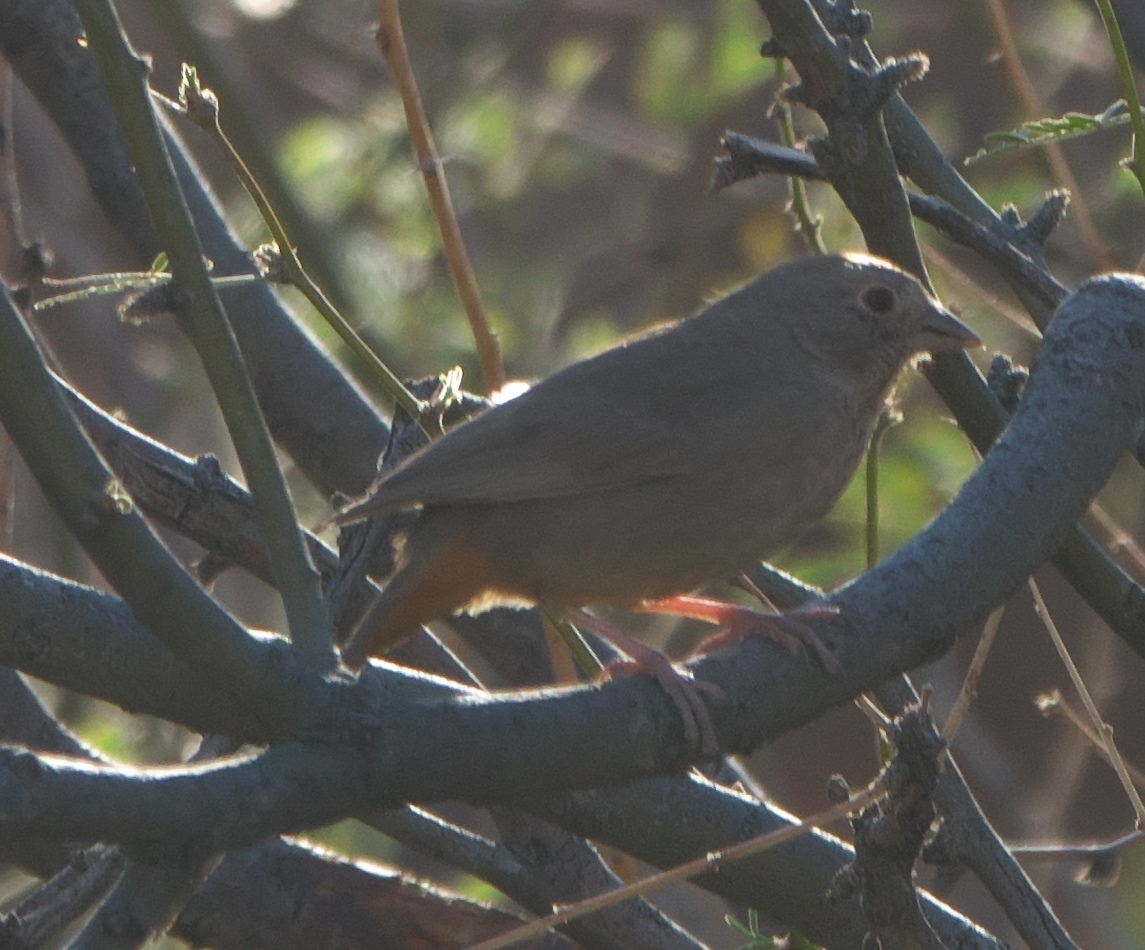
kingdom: Animalia
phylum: Chordata
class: Aves
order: Passeriformes
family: Passerellidae
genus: Melozone
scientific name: Melozone fusca
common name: Canyon towhee
